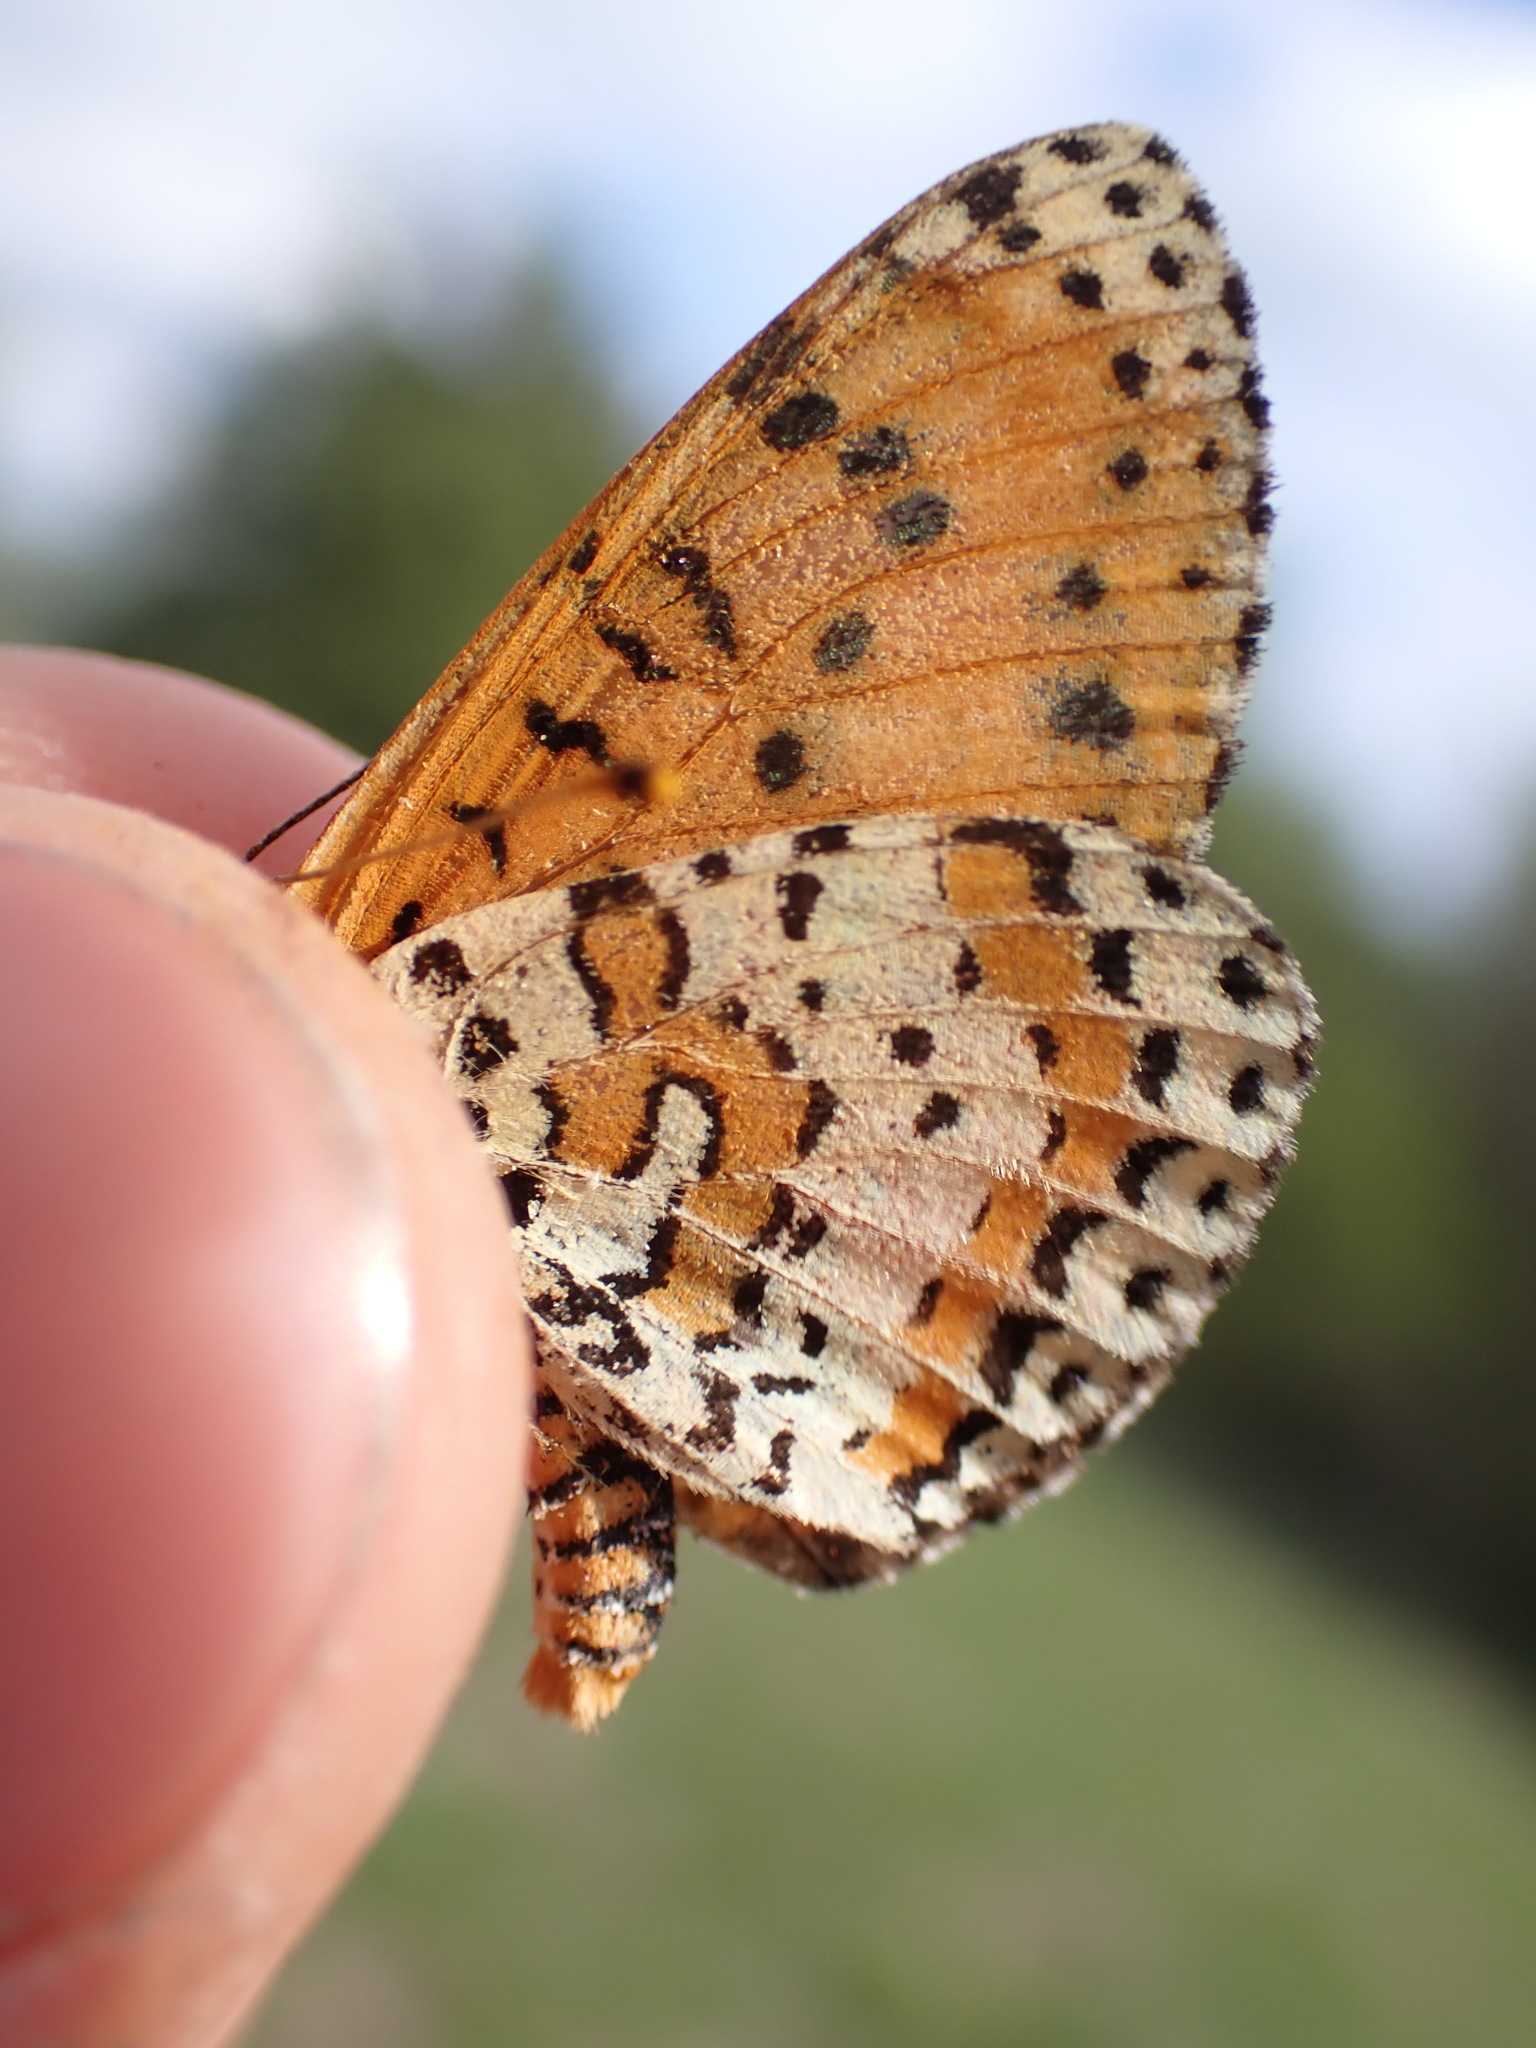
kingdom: Animalia
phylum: Arthropoda
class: Insecta
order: Lepidoptera
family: Nymphalidae
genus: Melitaea
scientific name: Melitaea didyma
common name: Spotted fritillary
